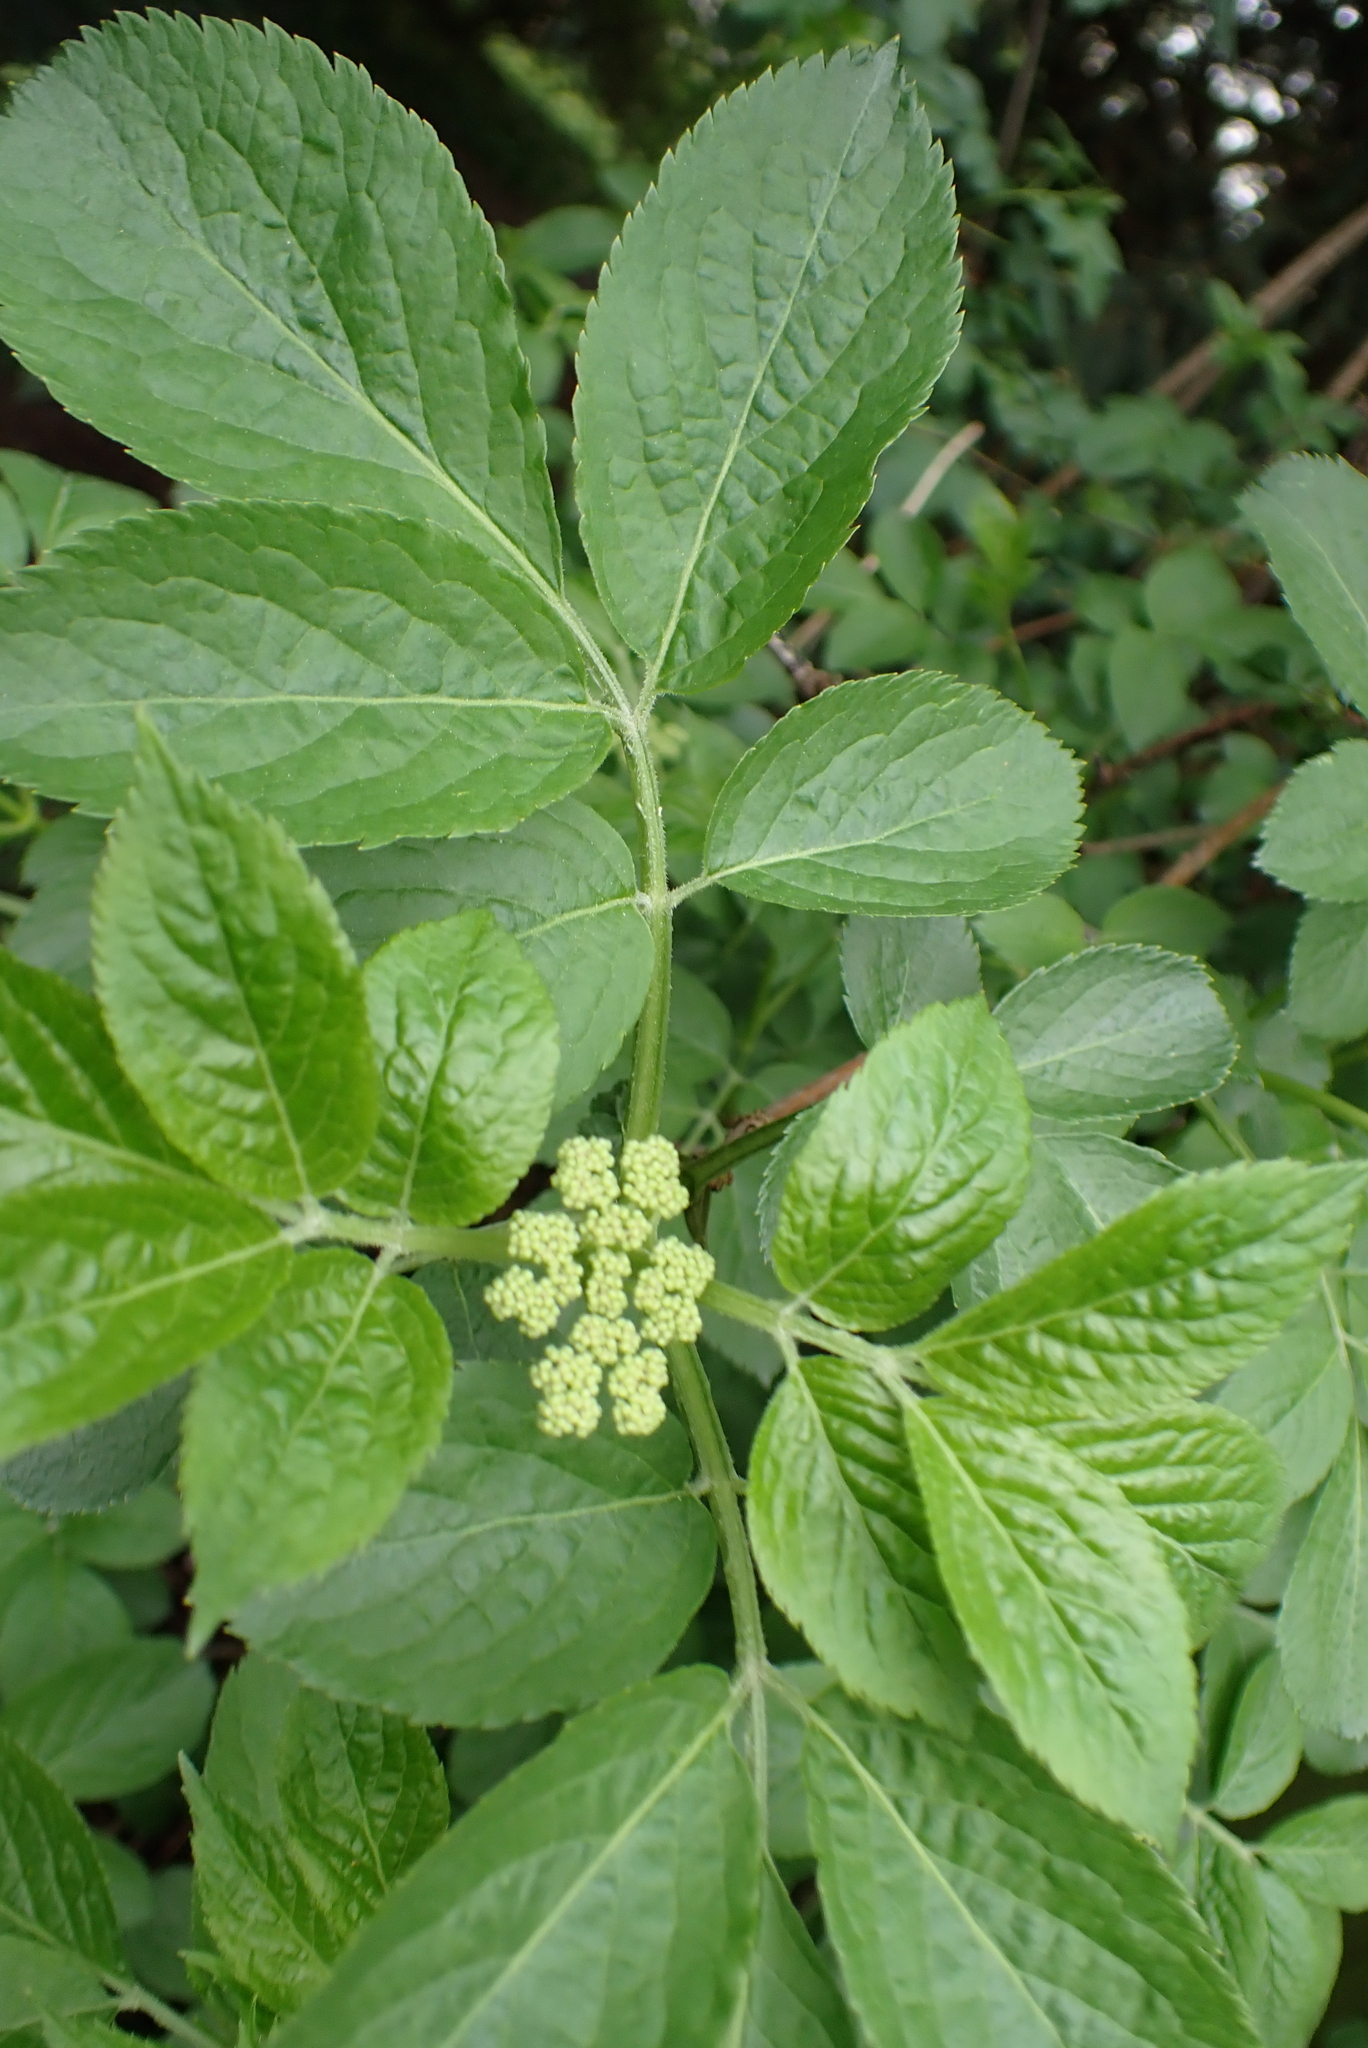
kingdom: Plantae
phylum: Tracheophyta
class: Magnoliopsida
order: Dipsacales
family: Viburnaceae
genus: Sambucus
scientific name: Sambucus nigra
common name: Elder
